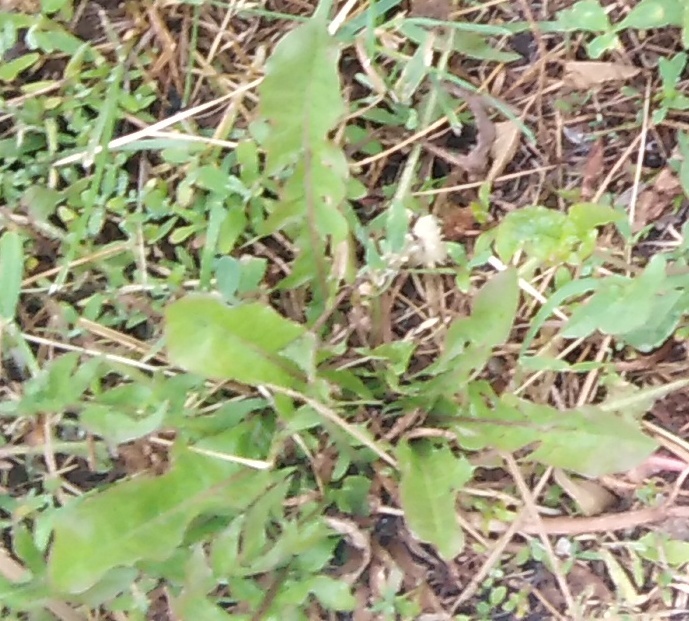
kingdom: Plantae
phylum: Tracheophyta
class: Magnoliopsida
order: Asterales
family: Asteraceae
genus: Taraxacum
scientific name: Taraxacum officinale
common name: Common dandelion
